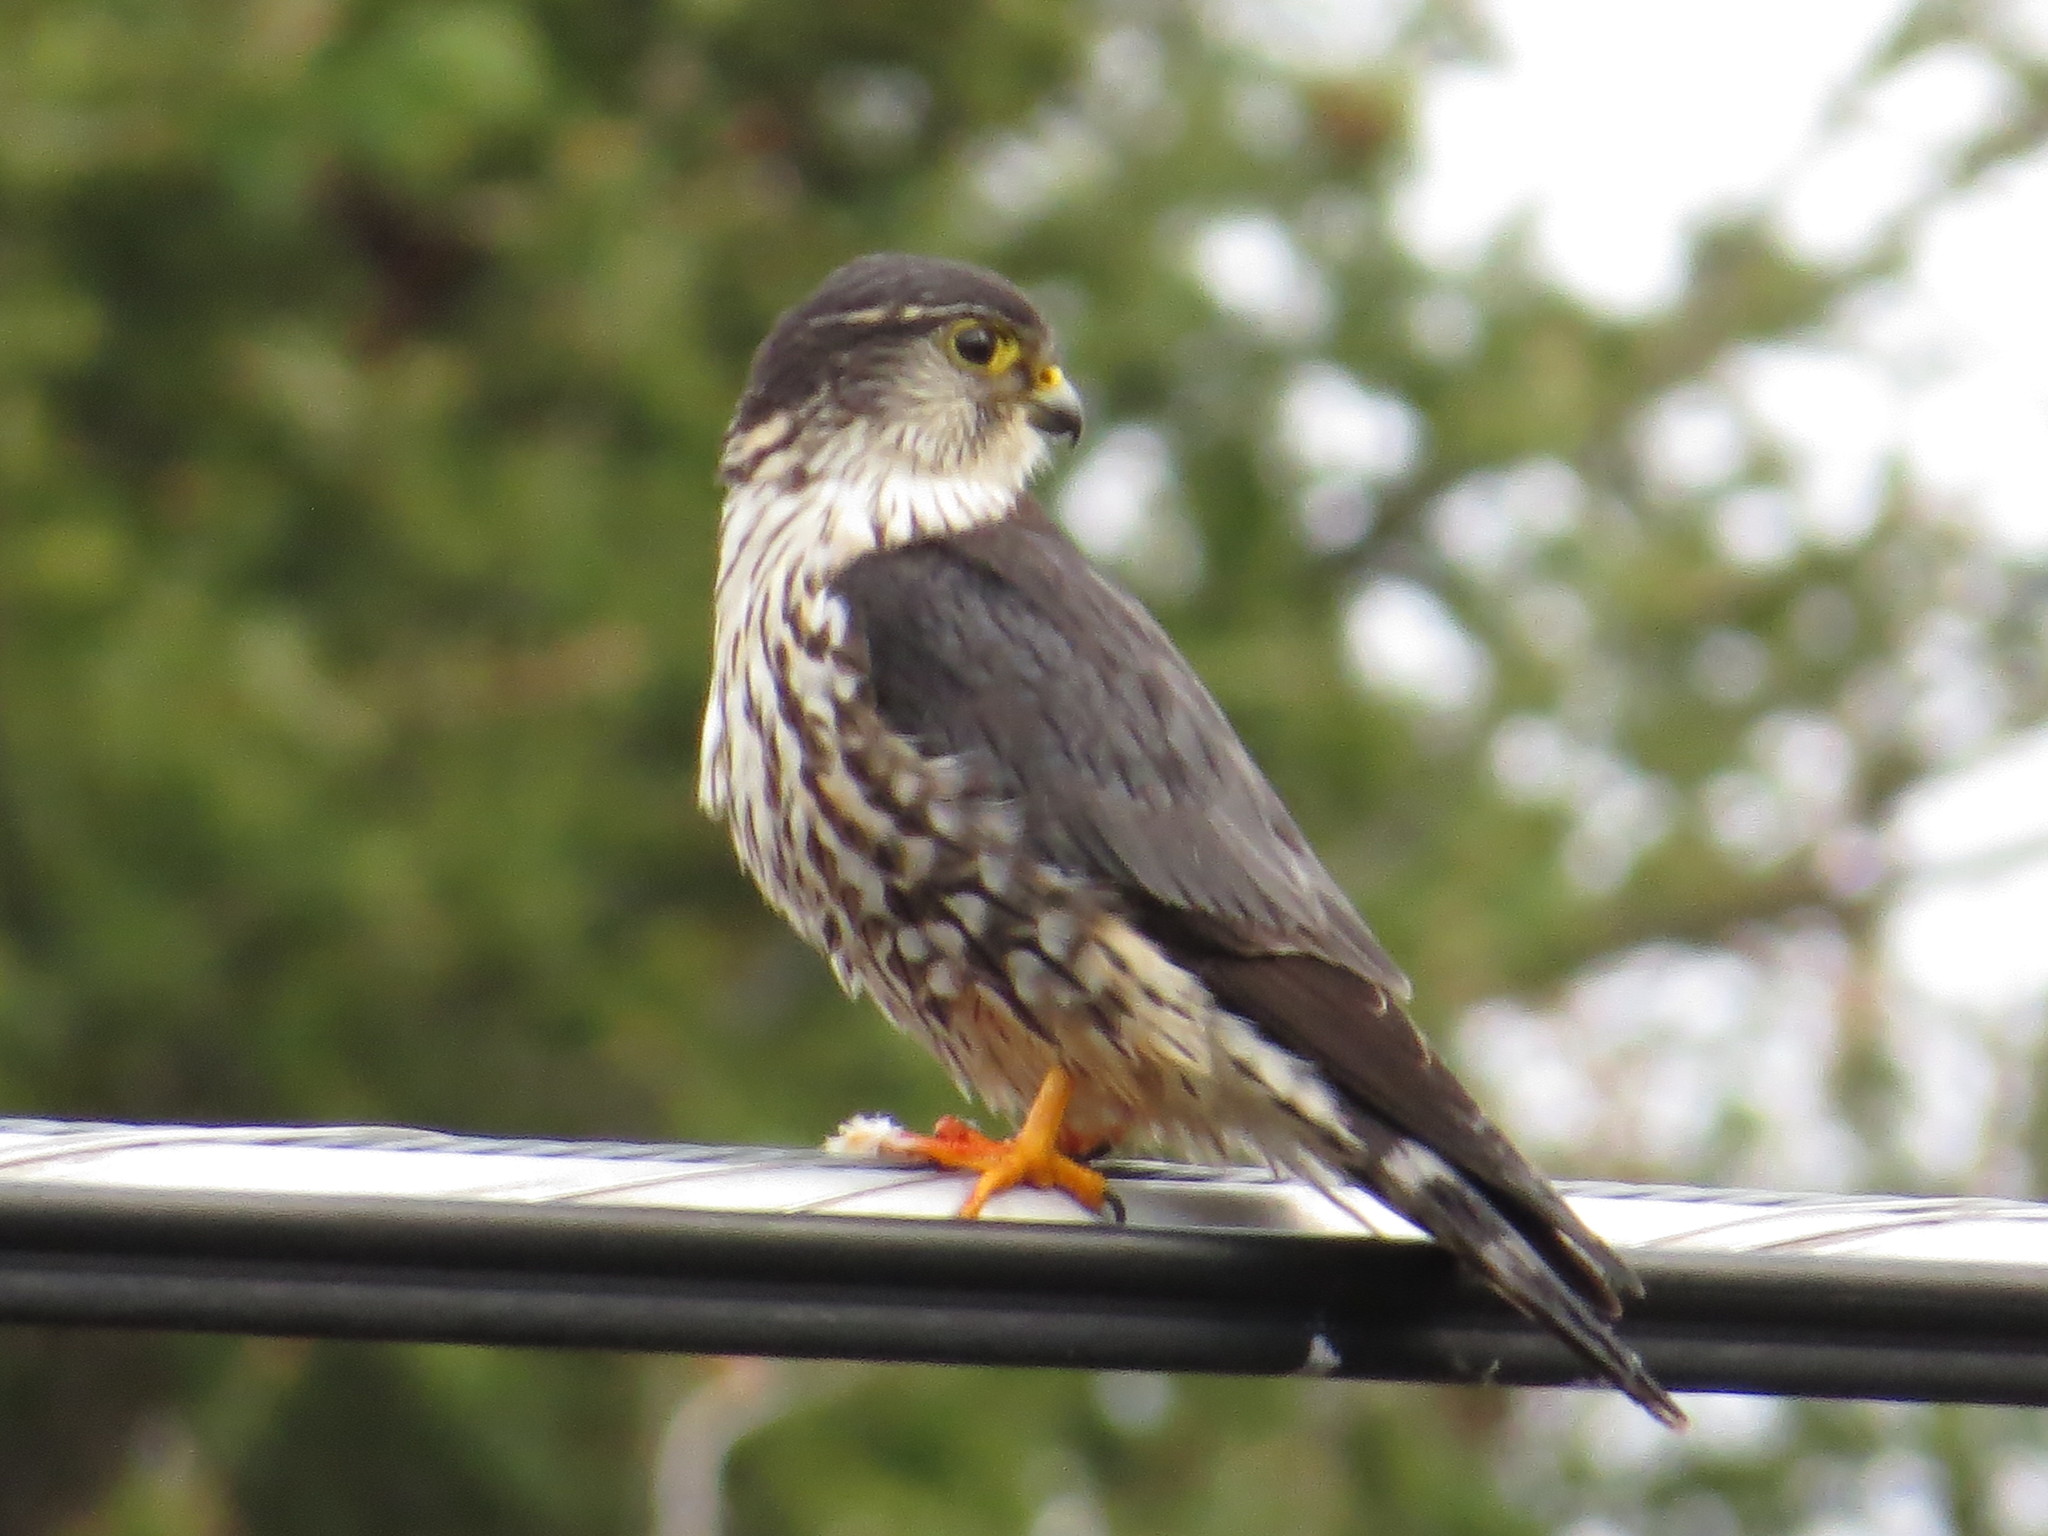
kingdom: Animalia
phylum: Chordata
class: Aves
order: Falconiformes
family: Falconidae
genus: Falco
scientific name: Falco columbarius
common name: Merlin
